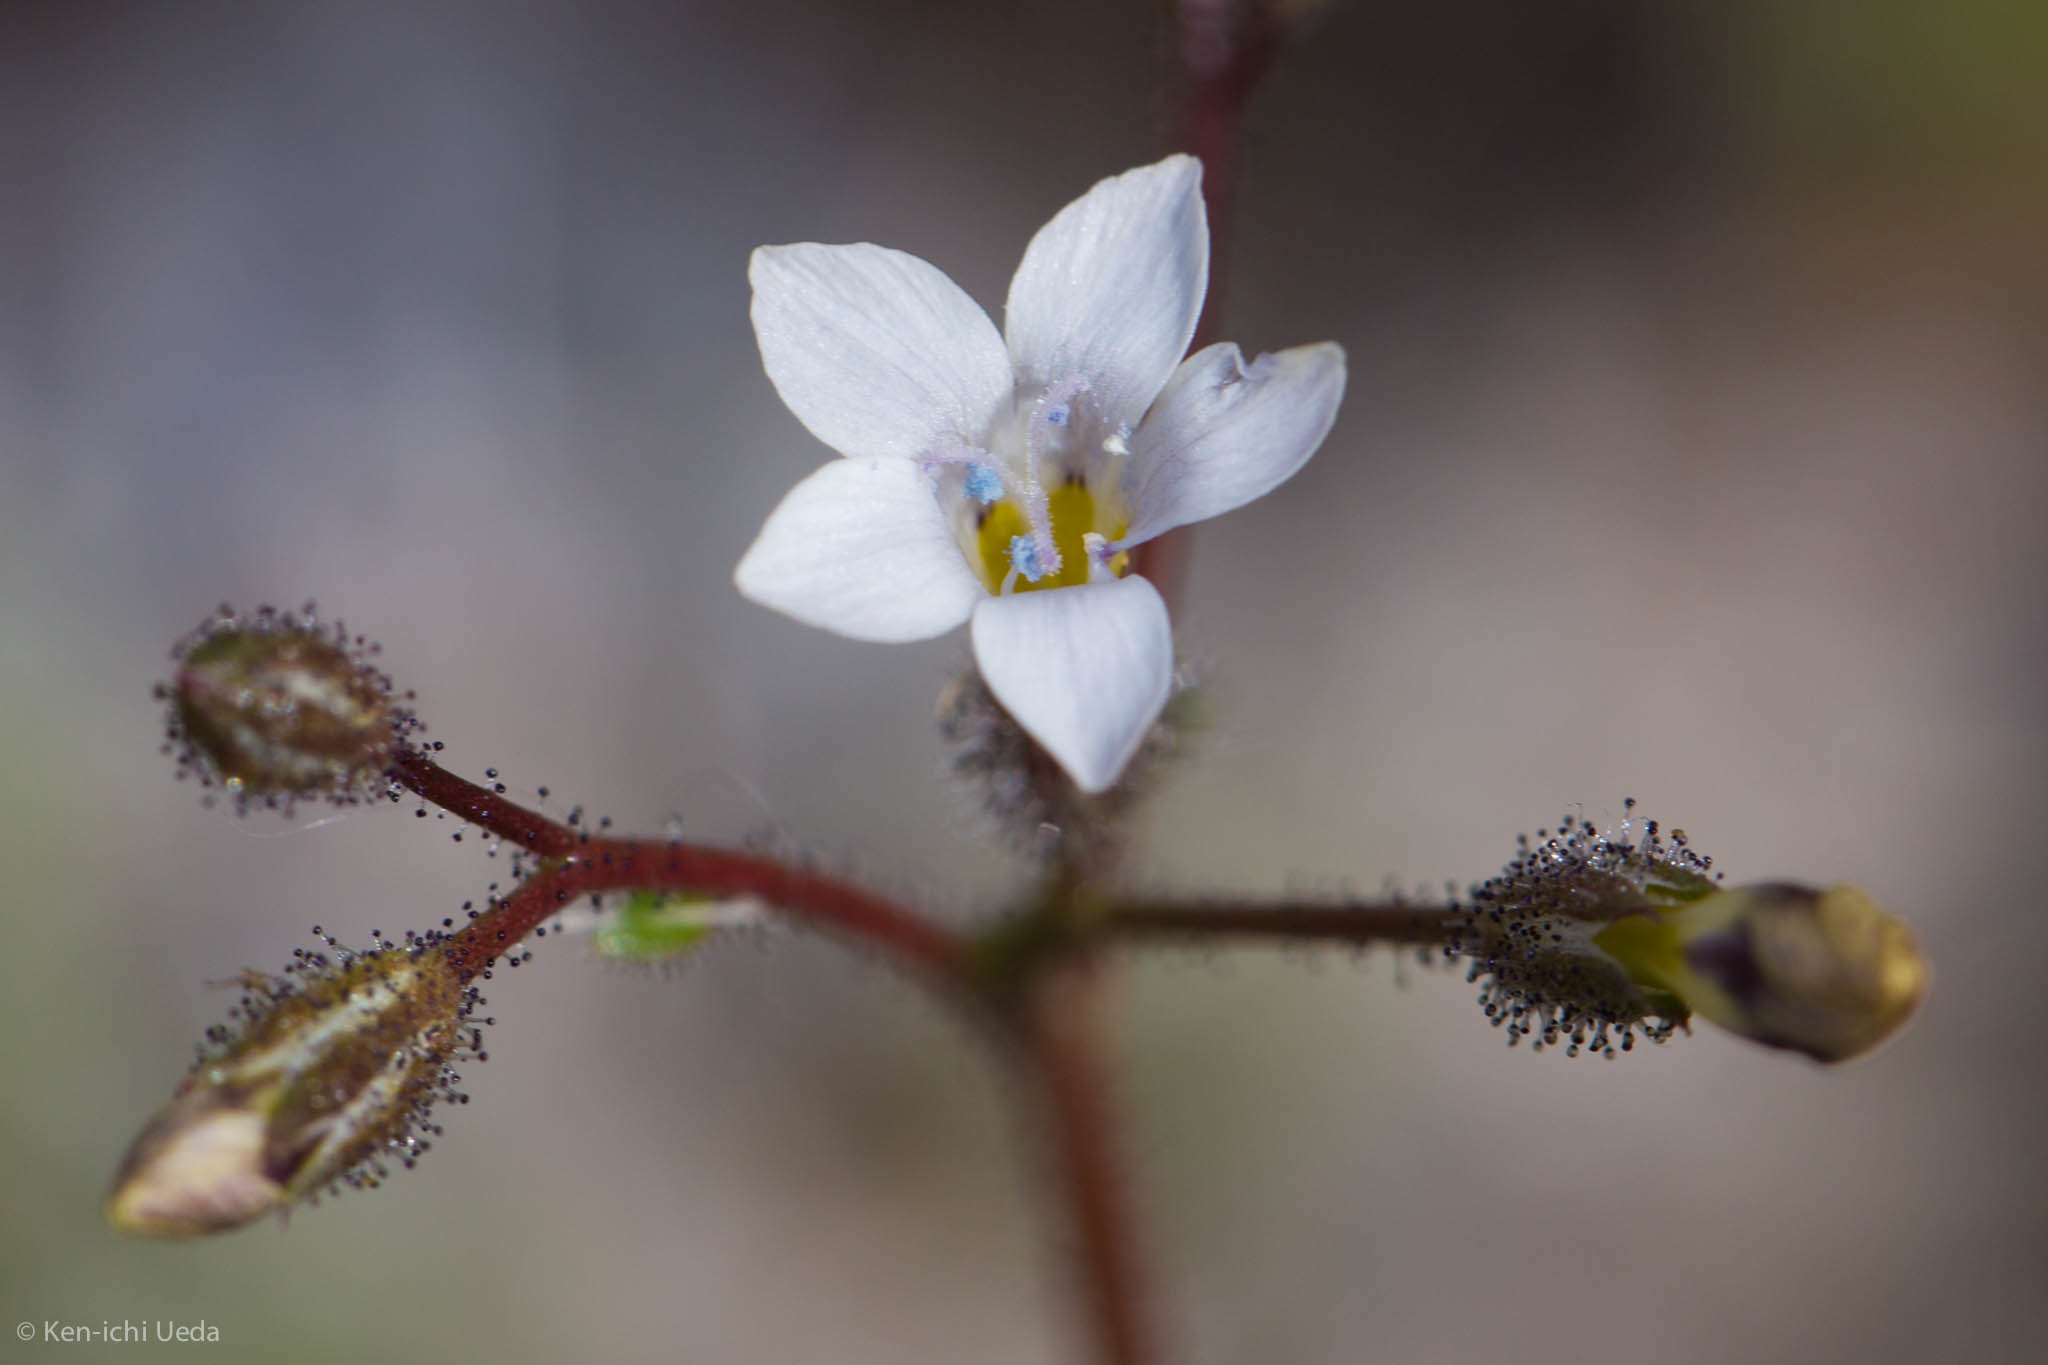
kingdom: Plantae
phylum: Tracheophyta
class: Magnoliopsida
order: Ericales
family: Polemoniaceae
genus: Gilia
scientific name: Gilia stellata
